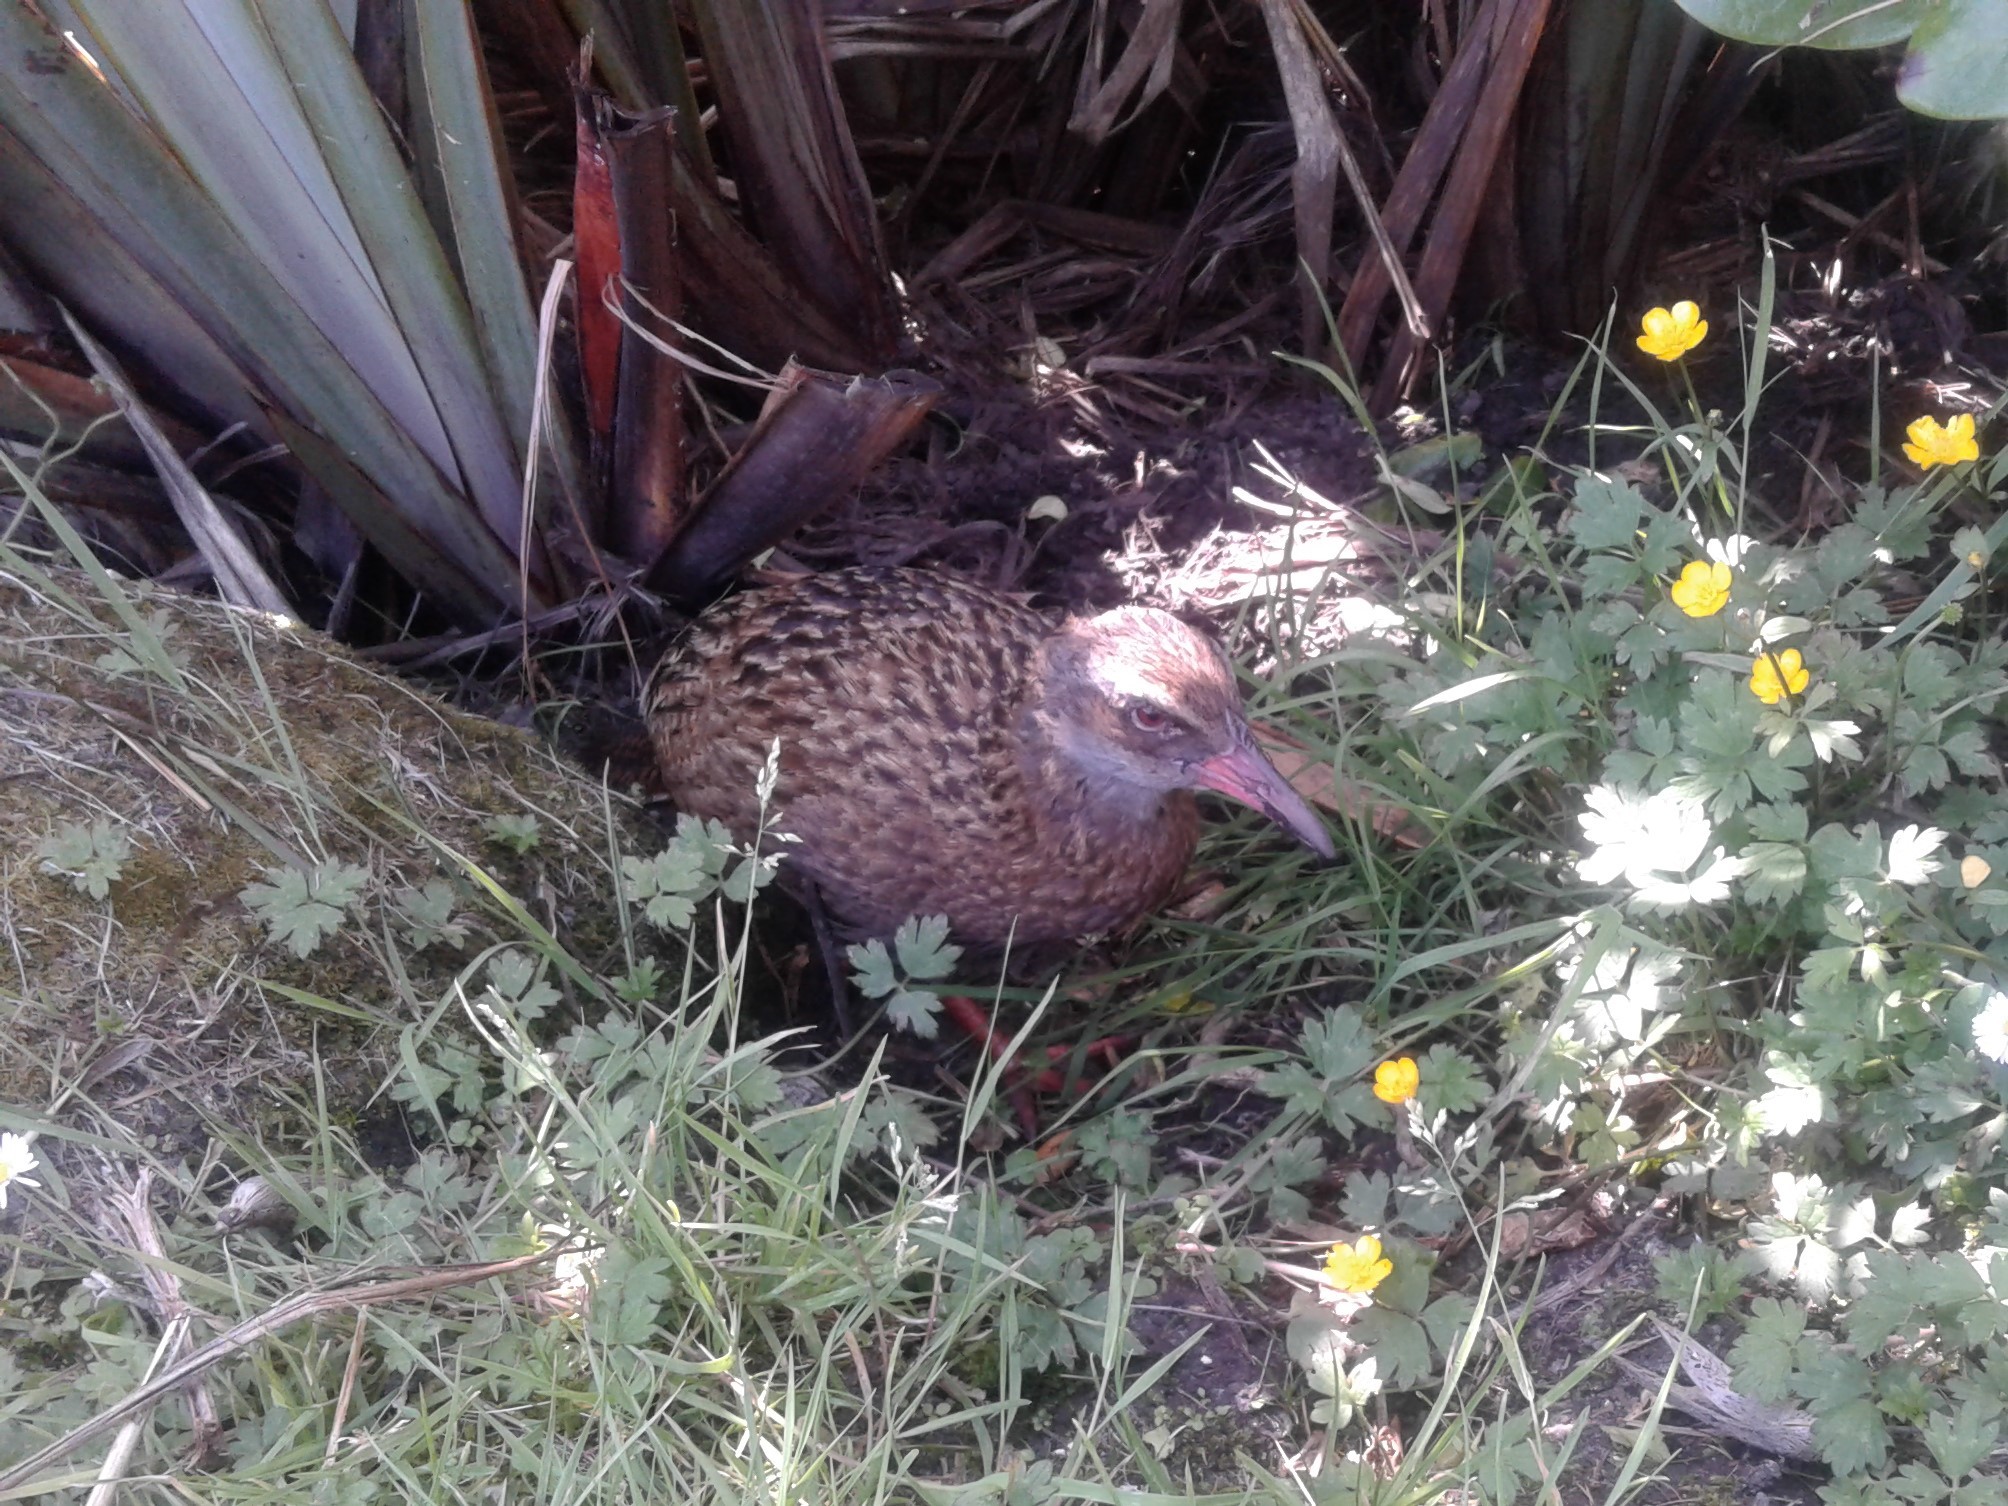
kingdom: Animalia
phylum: Chordata
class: Aves
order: Gruiformes
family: Rallidae
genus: Gallirallus
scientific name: Gallirallus australis
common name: Weka
